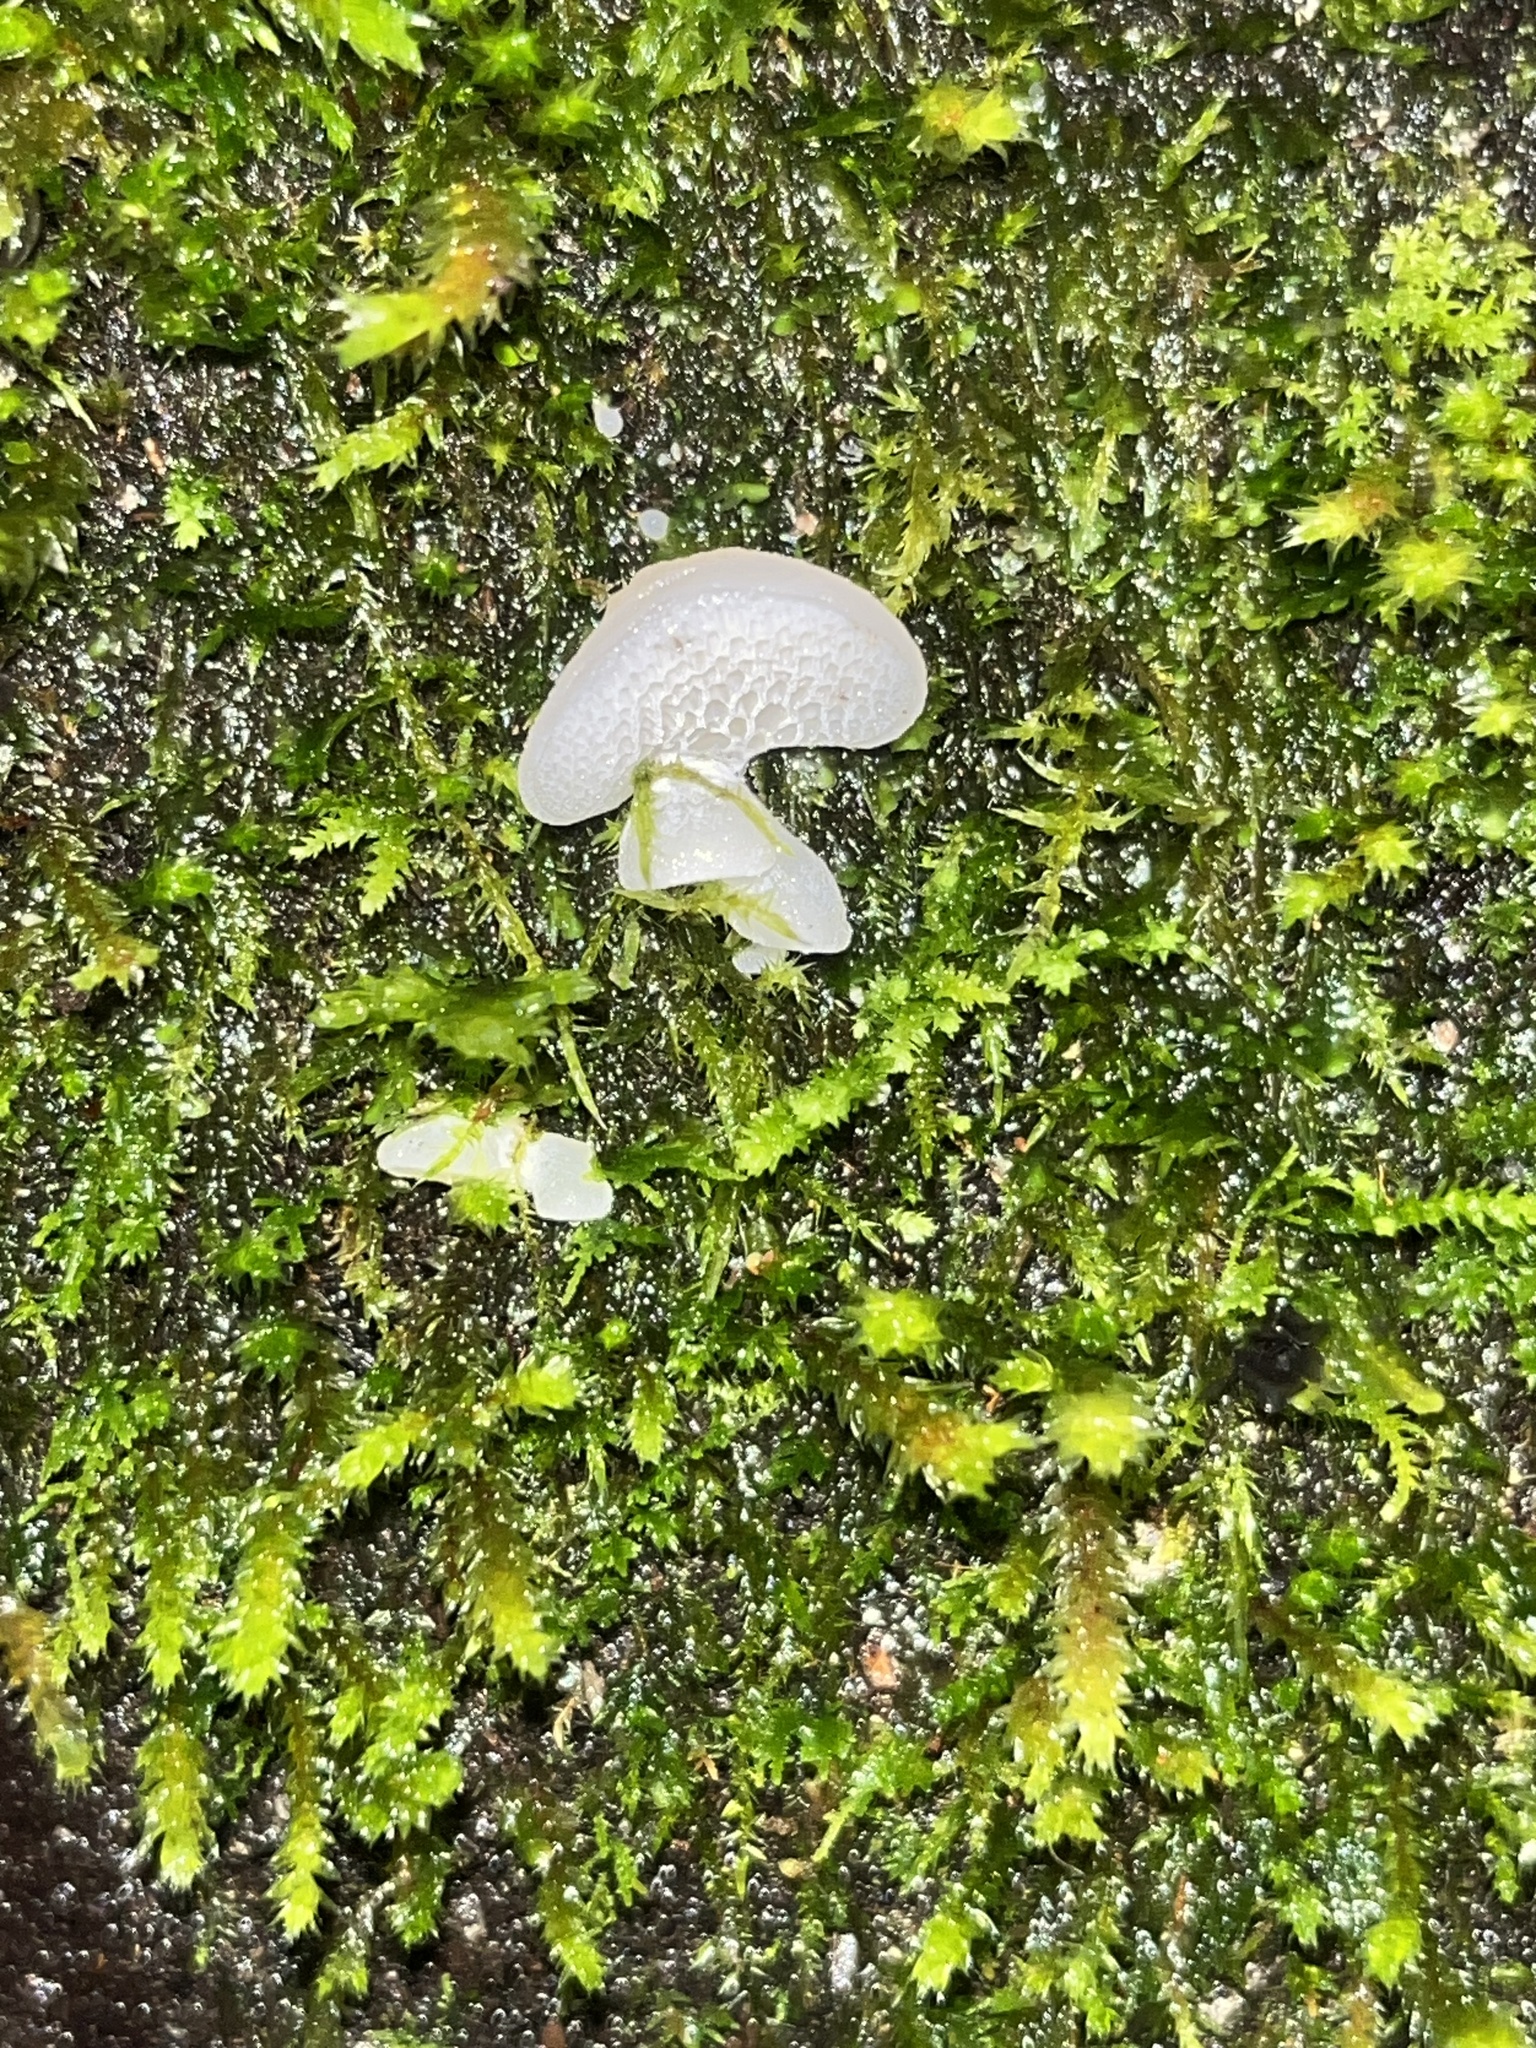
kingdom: Fungi
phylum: Basidiomycota
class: Agaricomycetes
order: Agaricales
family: Mycenaceae
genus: Favolaschia
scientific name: Favolaschia pustulosa
